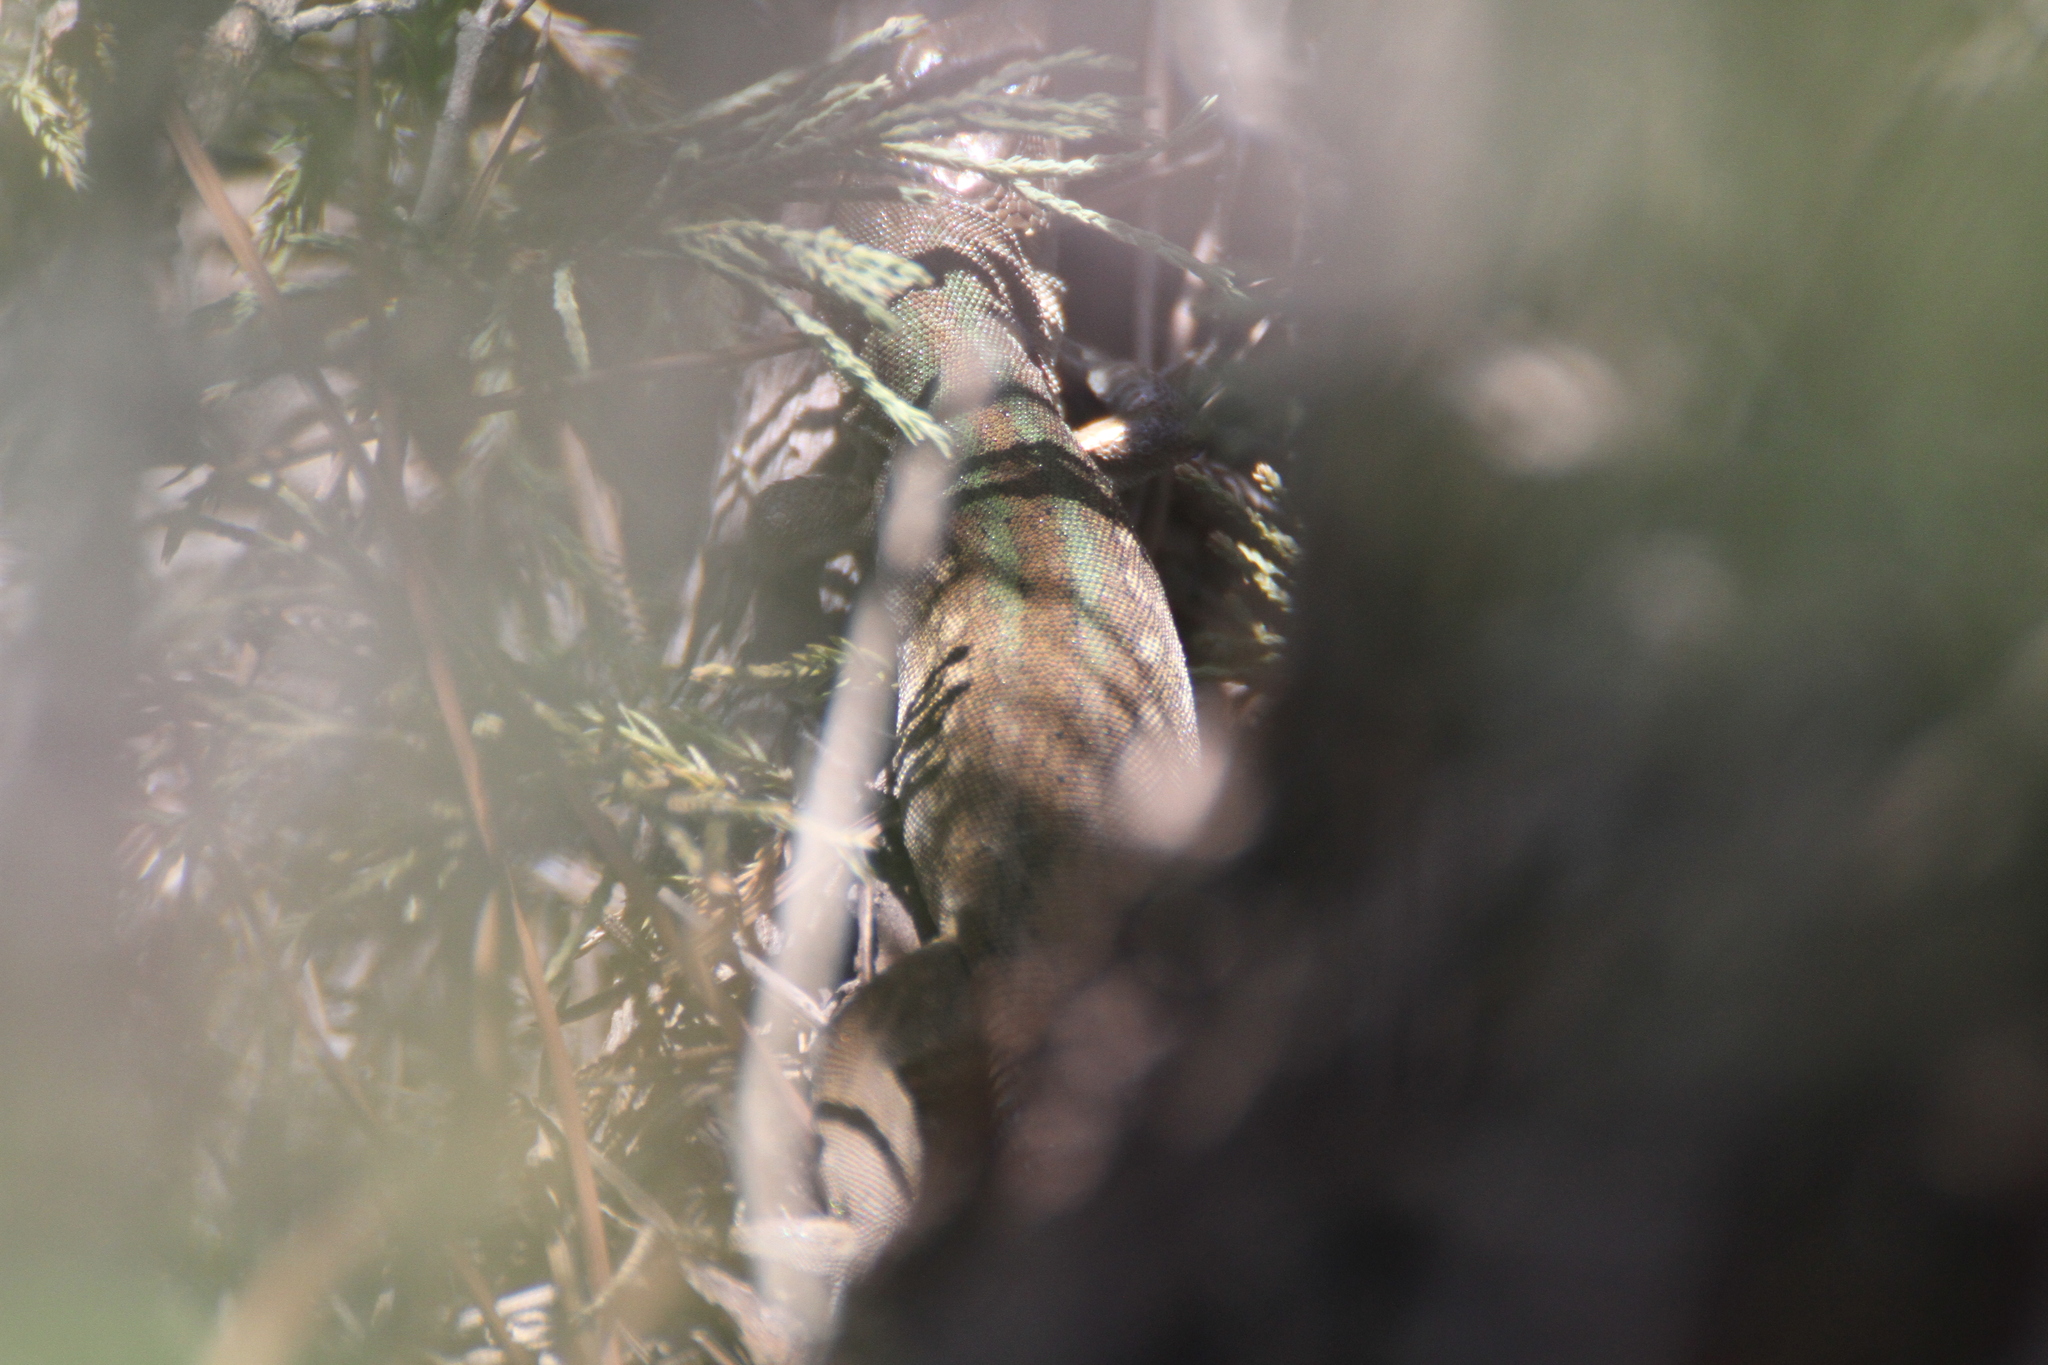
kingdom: Animalia
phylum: Chordata
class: Squamata
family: Lacertidae
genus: Podarcis
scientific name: Podarcis siculus
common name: Italian wall lizard
